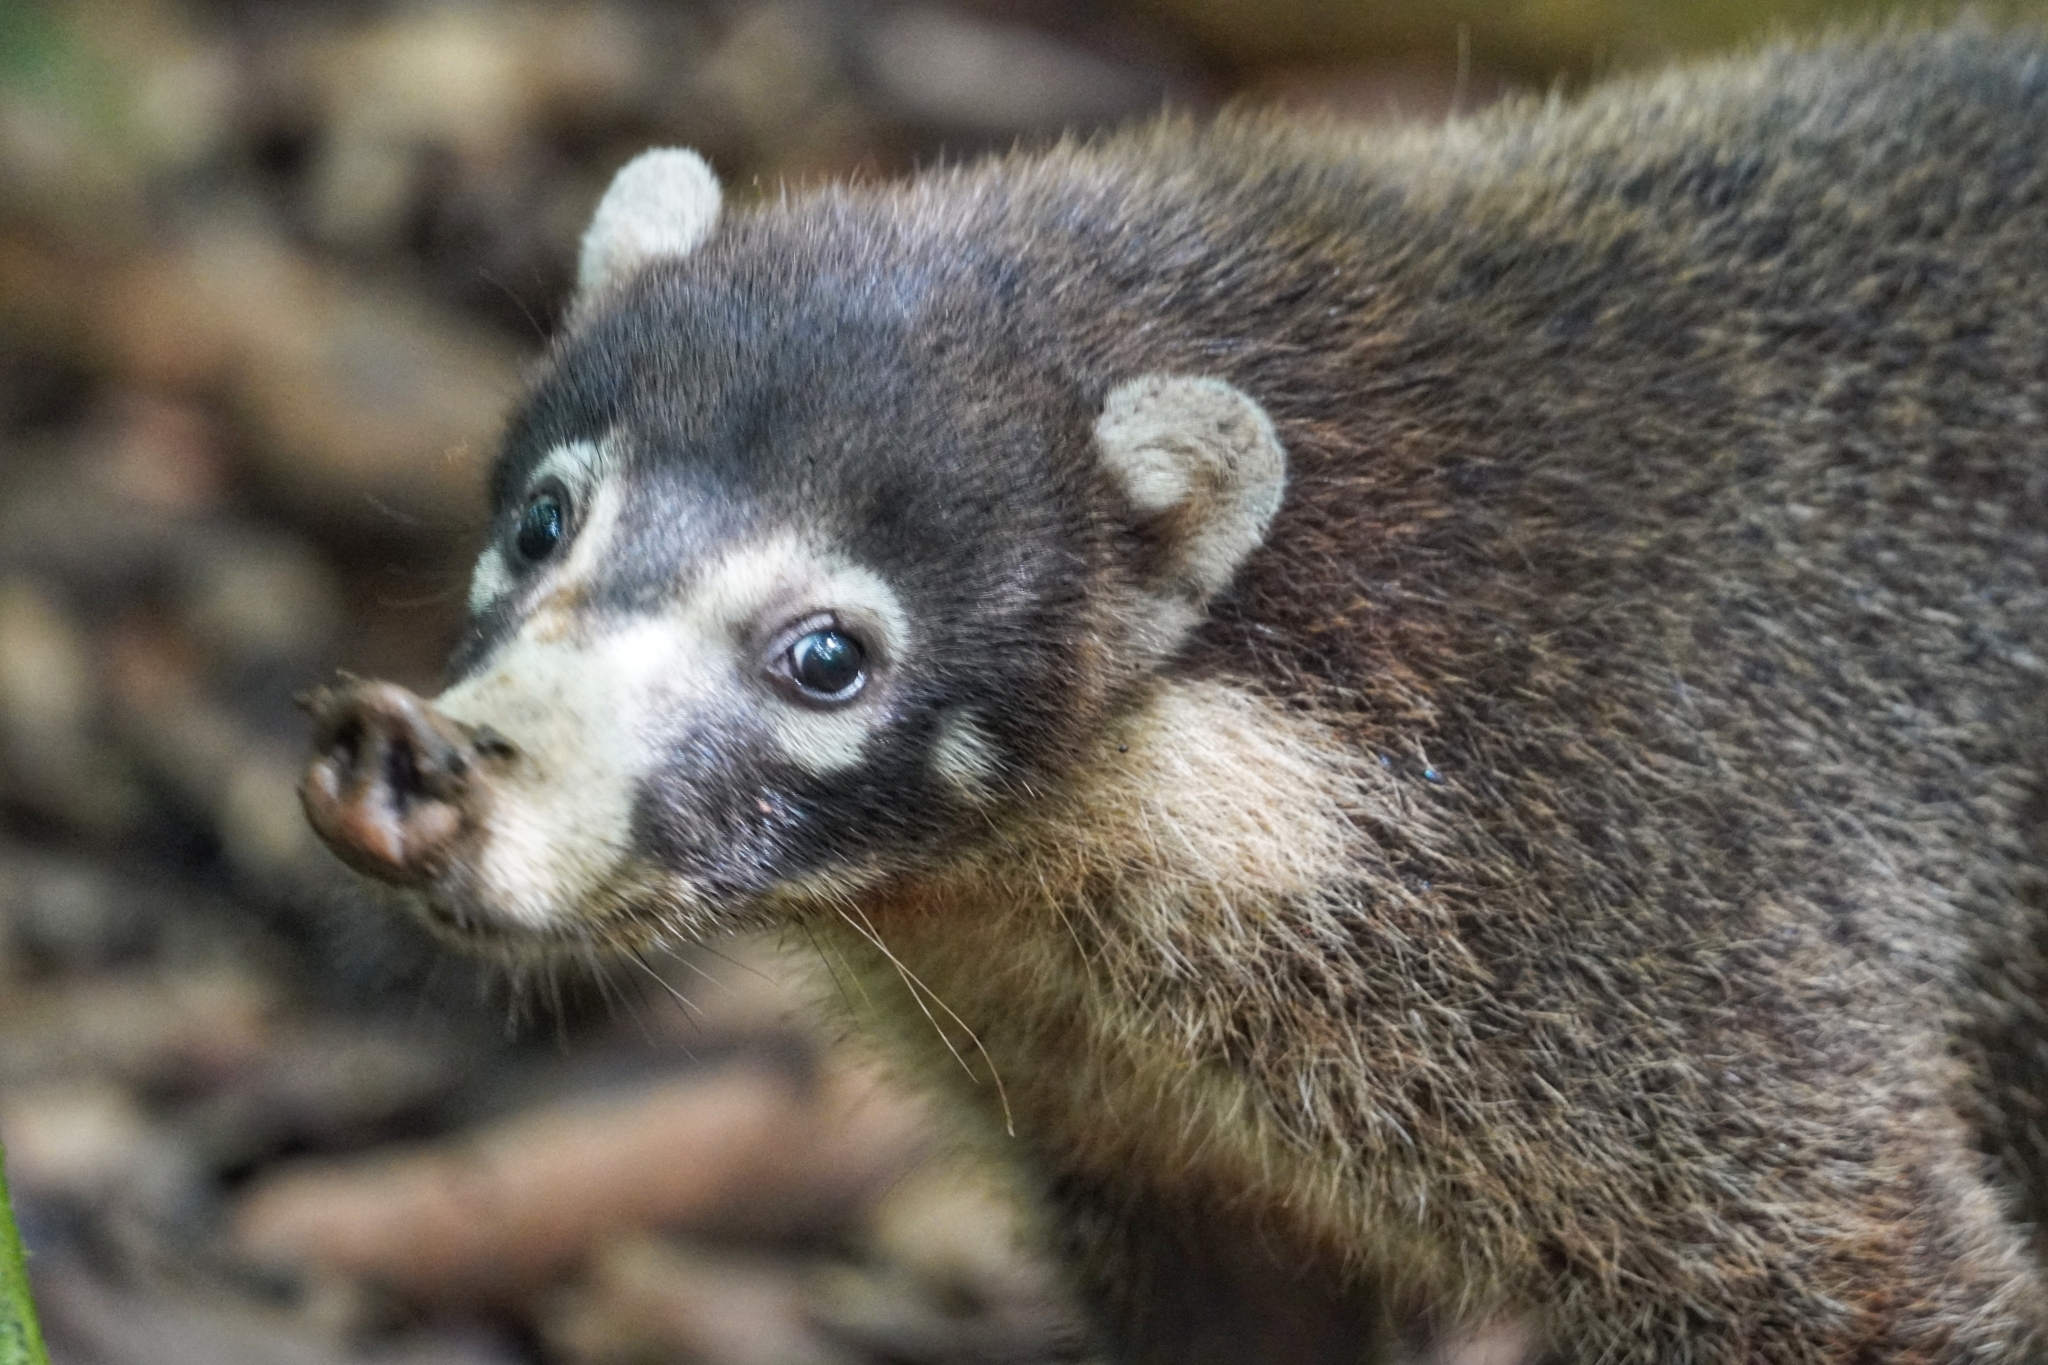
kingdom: Animalia
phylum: Chordata
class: Mammalia
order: Carnivora
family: Procyonidae
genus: Nasua
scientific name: Nasua narica
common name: White-nosed coati
